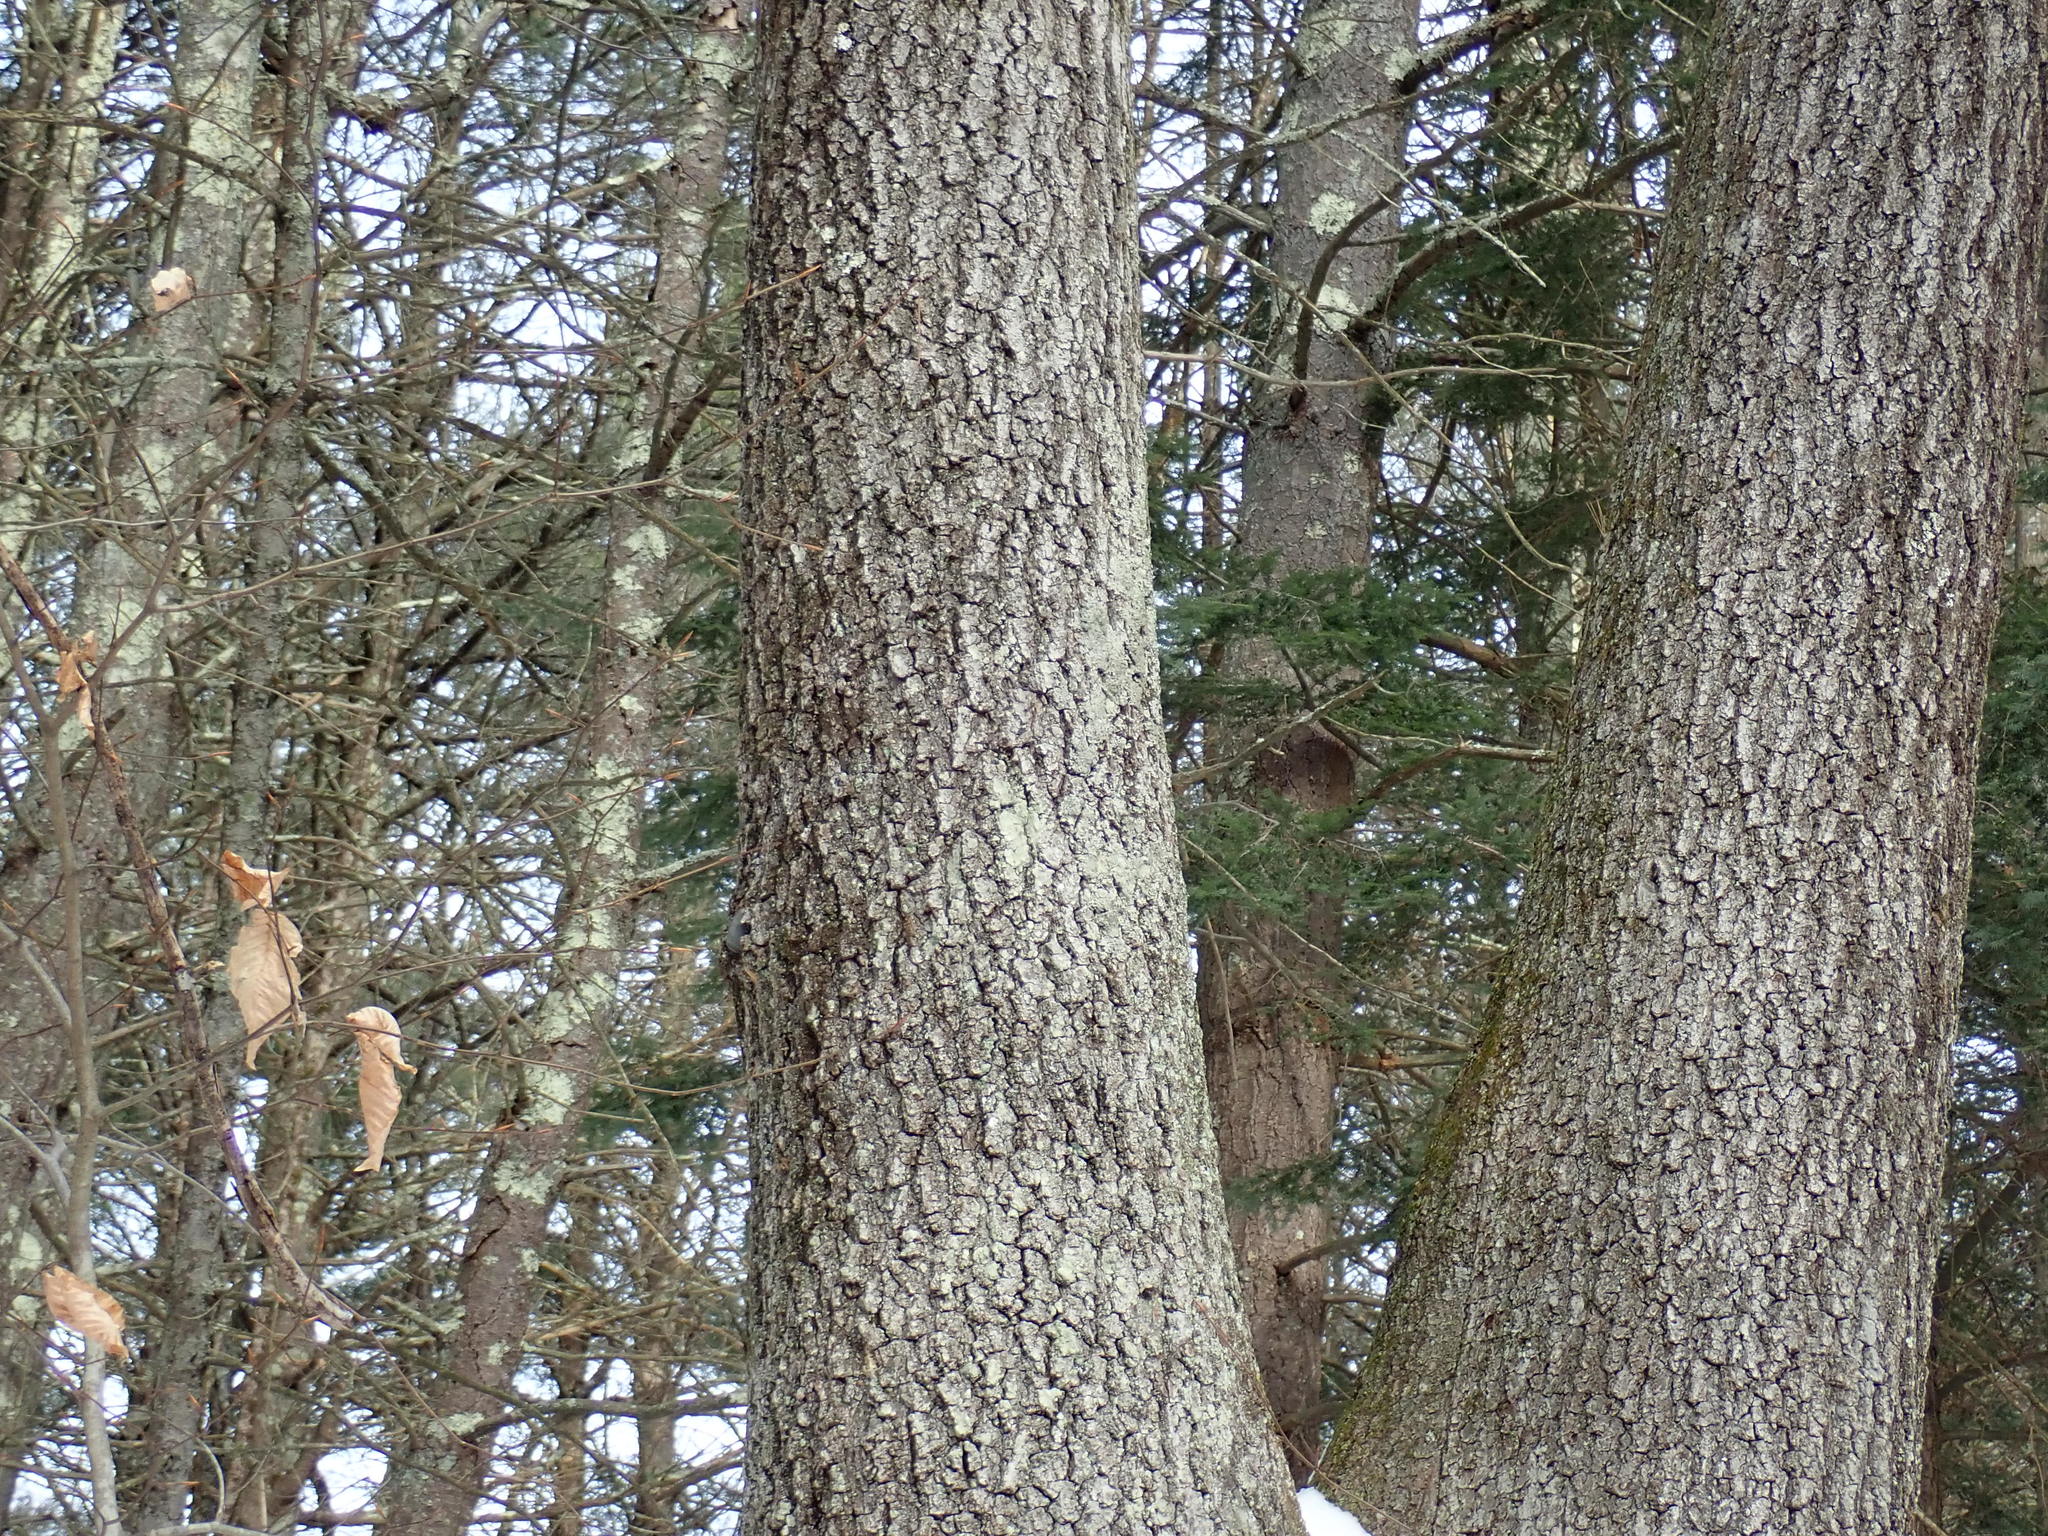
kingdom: Plantae
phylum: Tracheophyta
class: Magnoliopsida
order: Fagales
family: Fagaceae
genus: Quercus
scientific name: Quercus velutina
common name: Black oak
